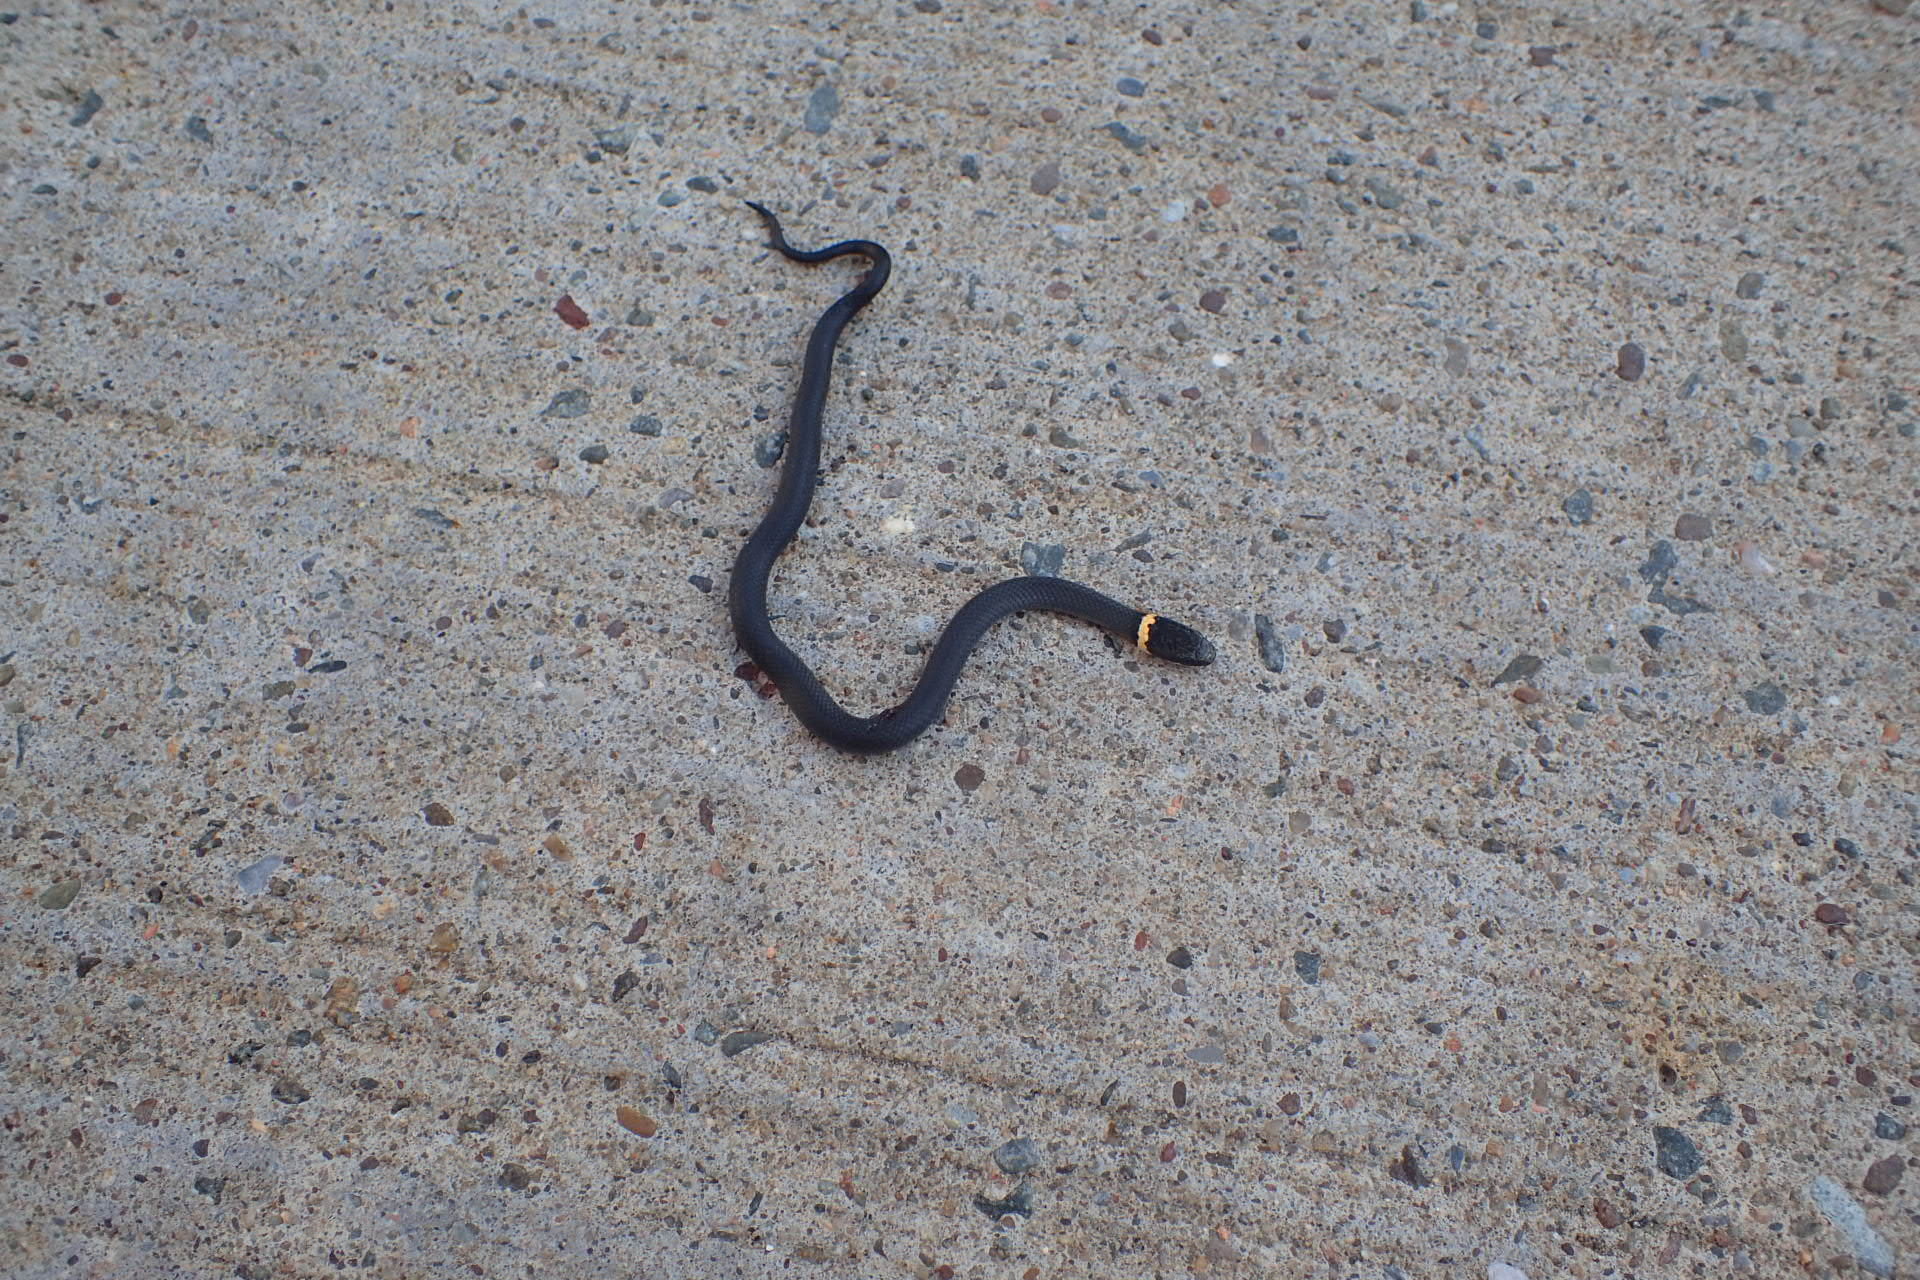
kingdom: Animalia
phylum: Chordata
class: Squamata
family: Colubridae
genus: Diadophis
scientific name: Diadophis punctatus
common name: Ringneck snake
